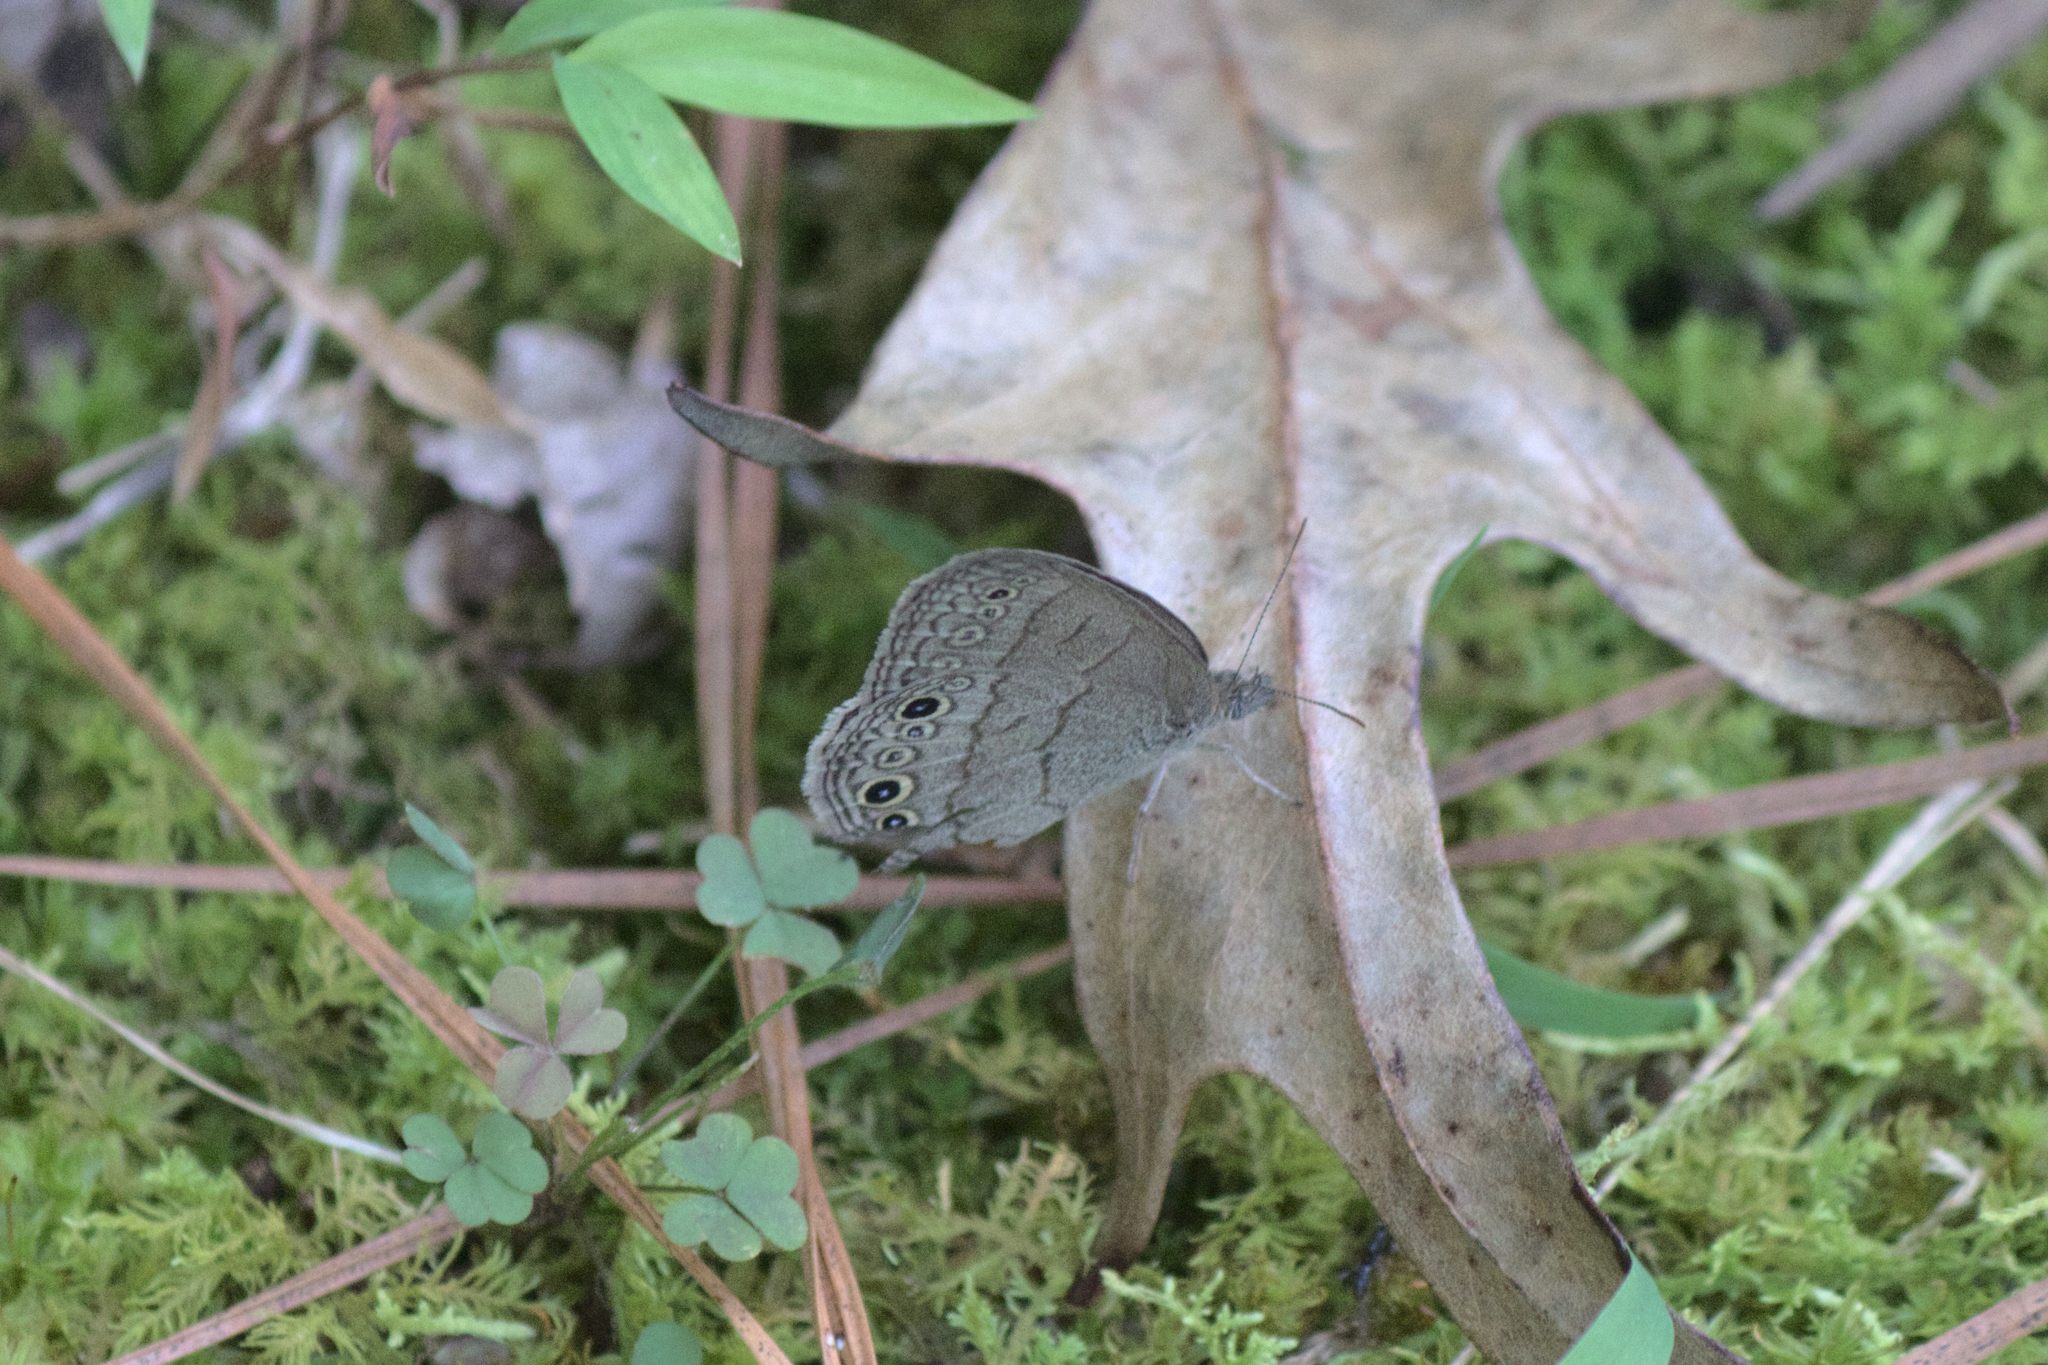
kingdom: Animalia
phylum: Arthropoda
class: Insecta
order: Lepidoptera
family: Nymphalidae
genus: Hermeuptychia
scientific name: Hermeuptychia hermes
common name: Hermes satyr
